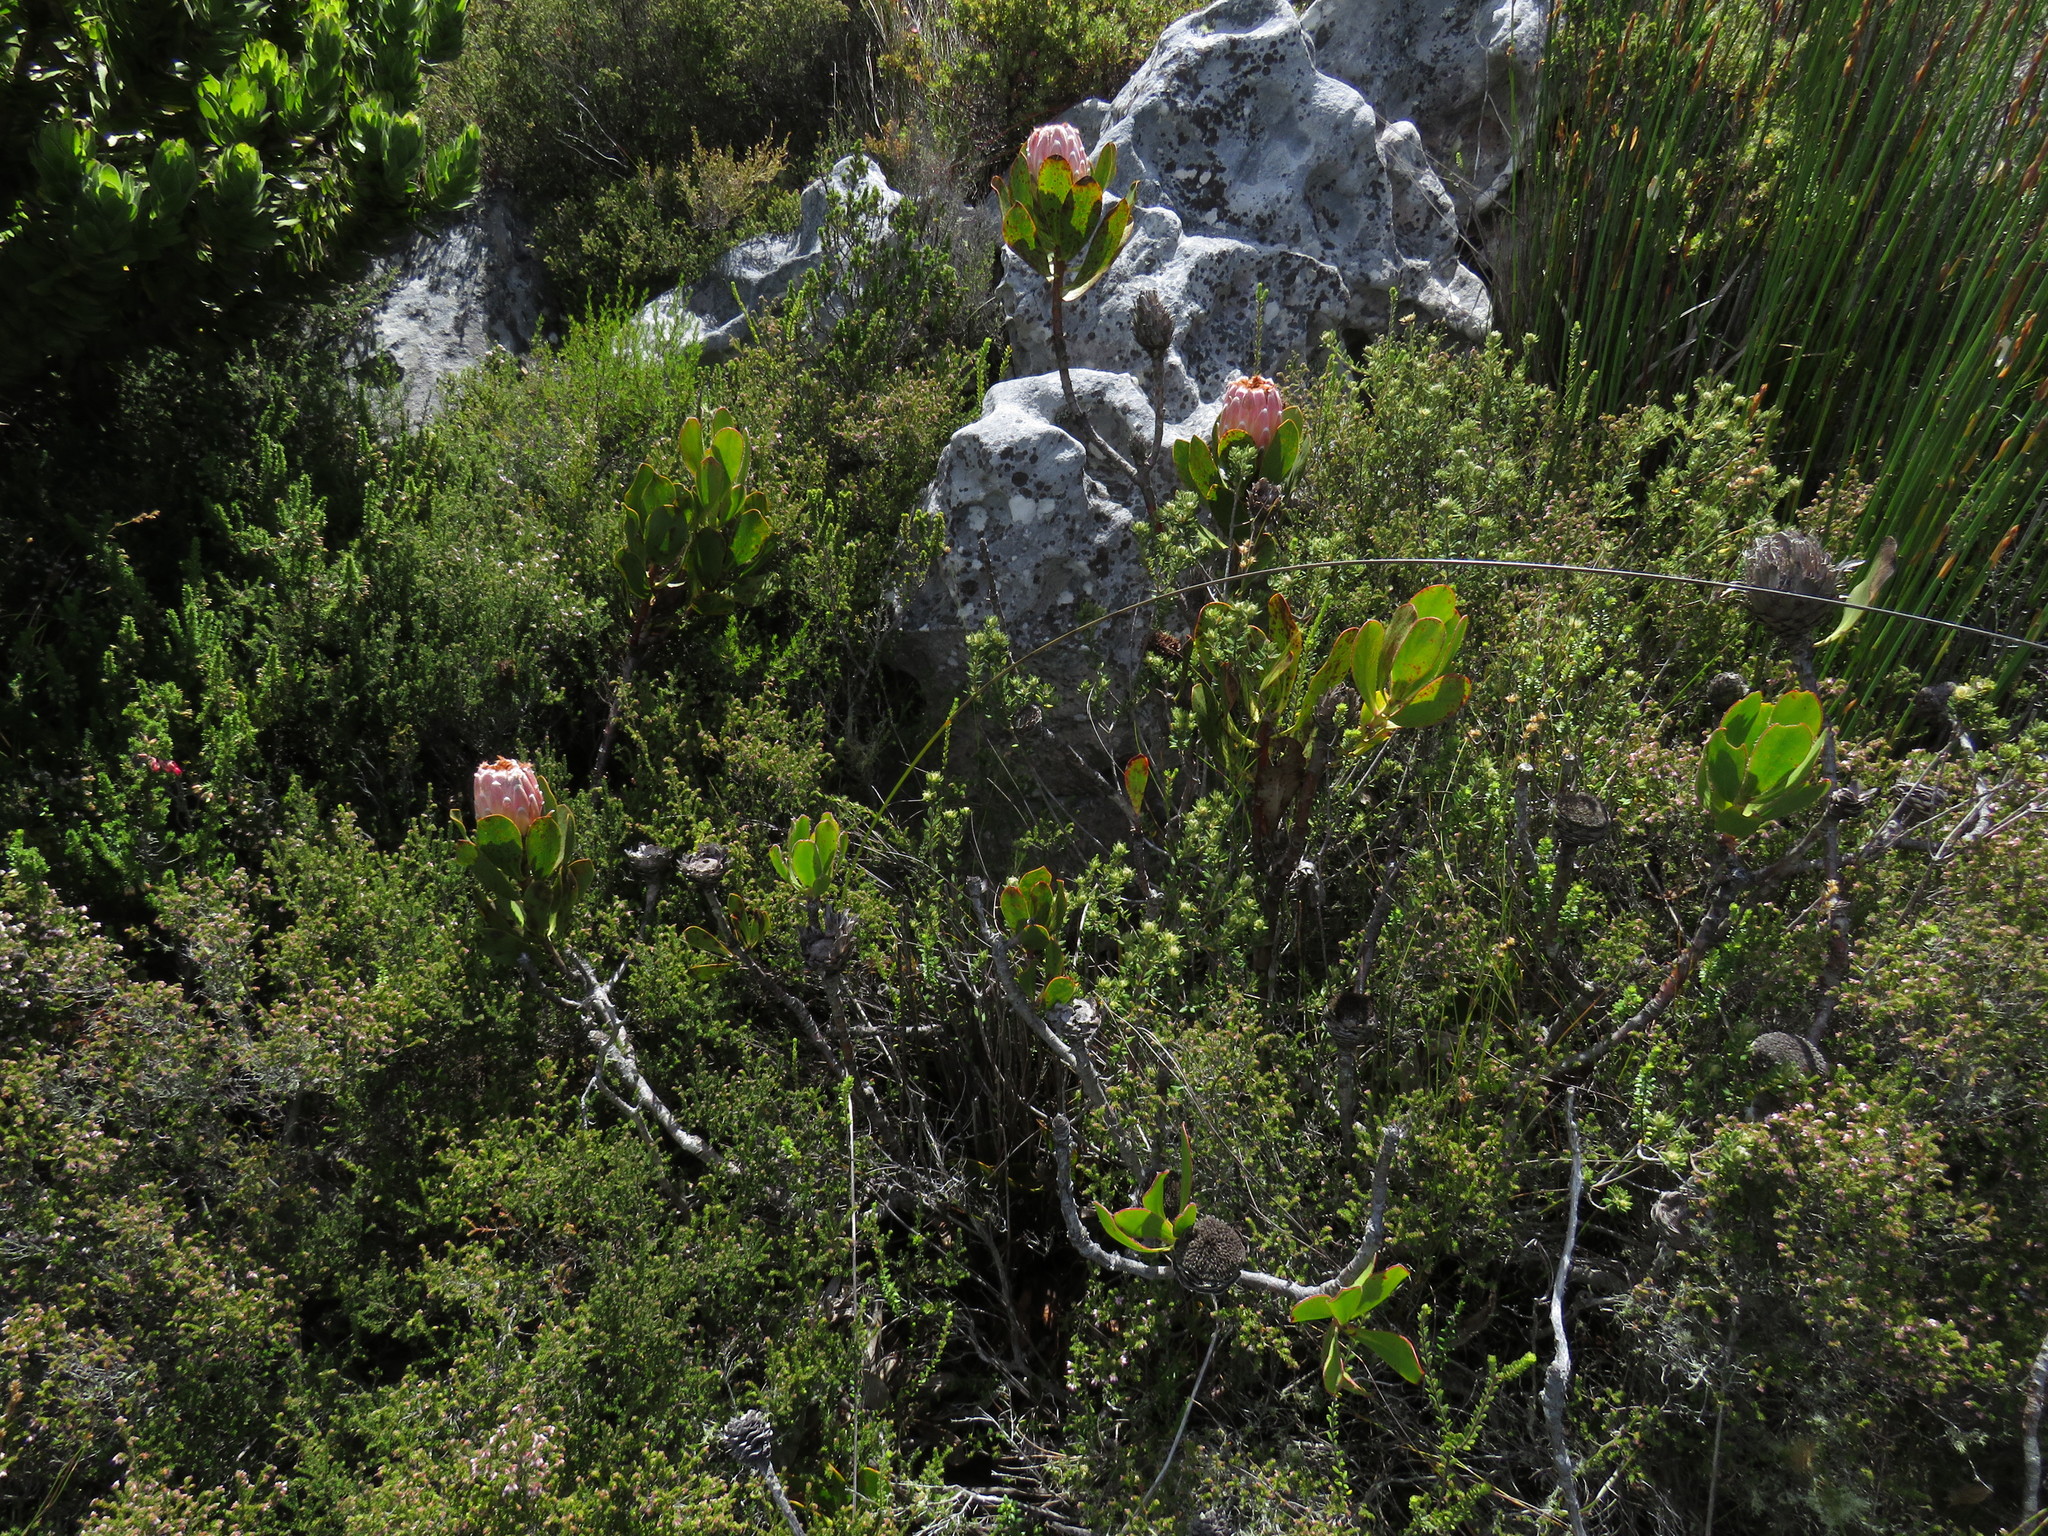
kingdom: Plantae
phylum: Tracheophyta
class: Magnoliopsida
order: Proteales
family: Proteaceae
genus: Protea
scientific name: Protea speciosa
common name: Brown-beard sugarbush
